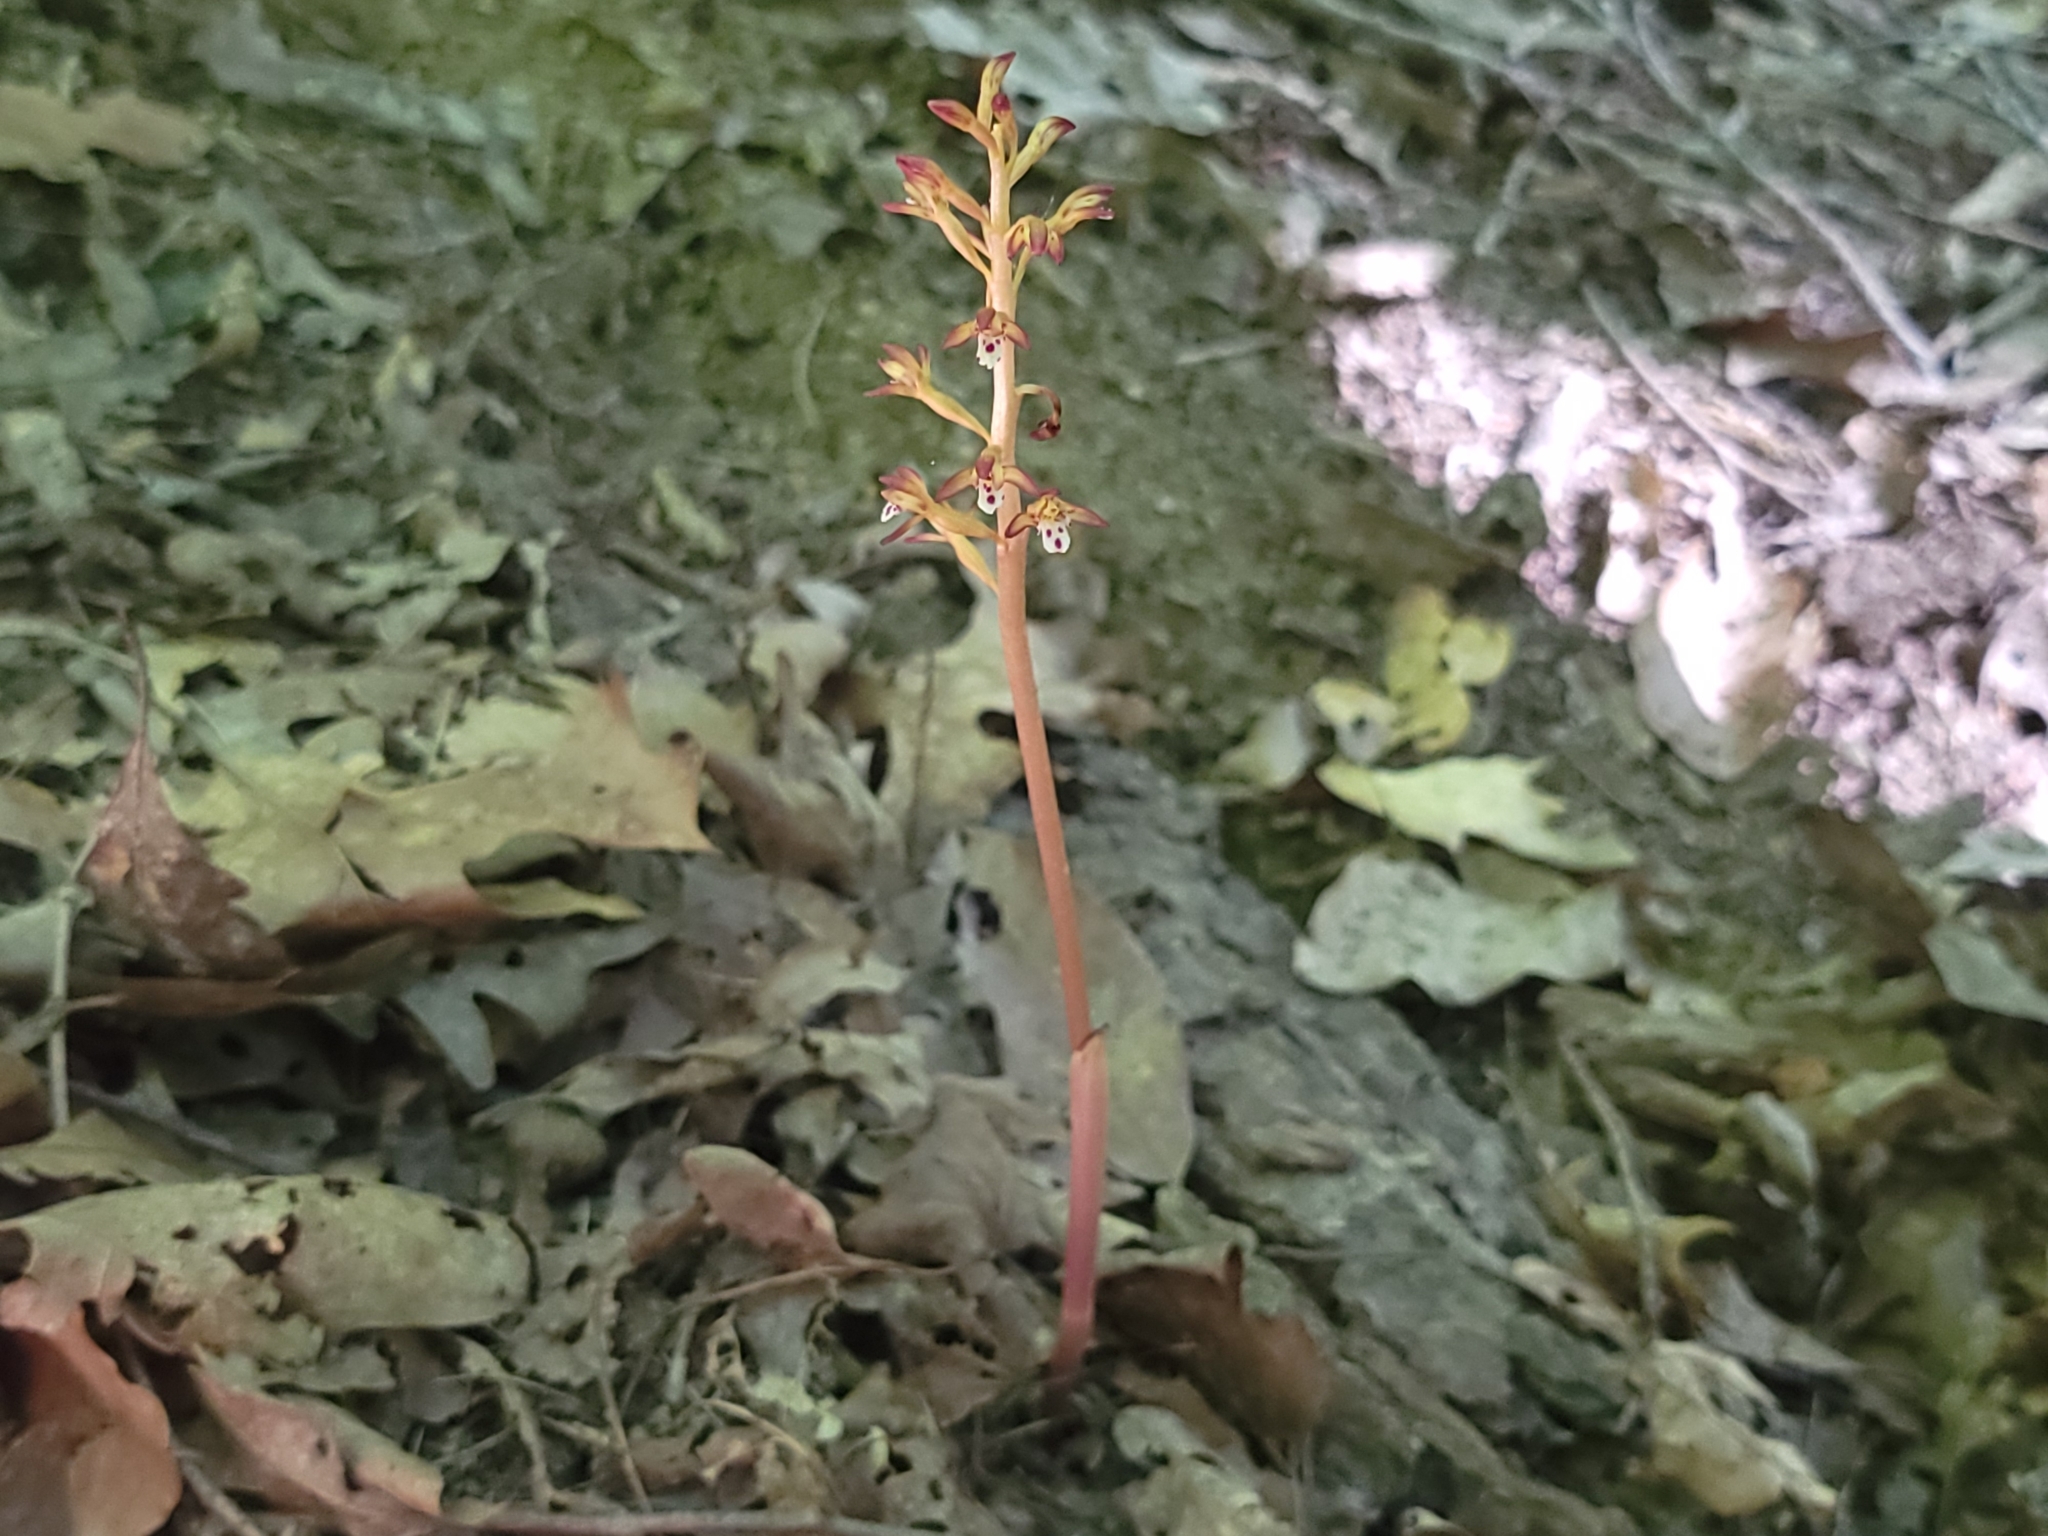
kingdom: Plantae
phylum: Tracheophyta
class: Liliopsida
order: Asparagales
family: Orchidaceae
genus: Corallorhiza
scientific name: Corallorhiza maculata
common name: Spotted coralroot
